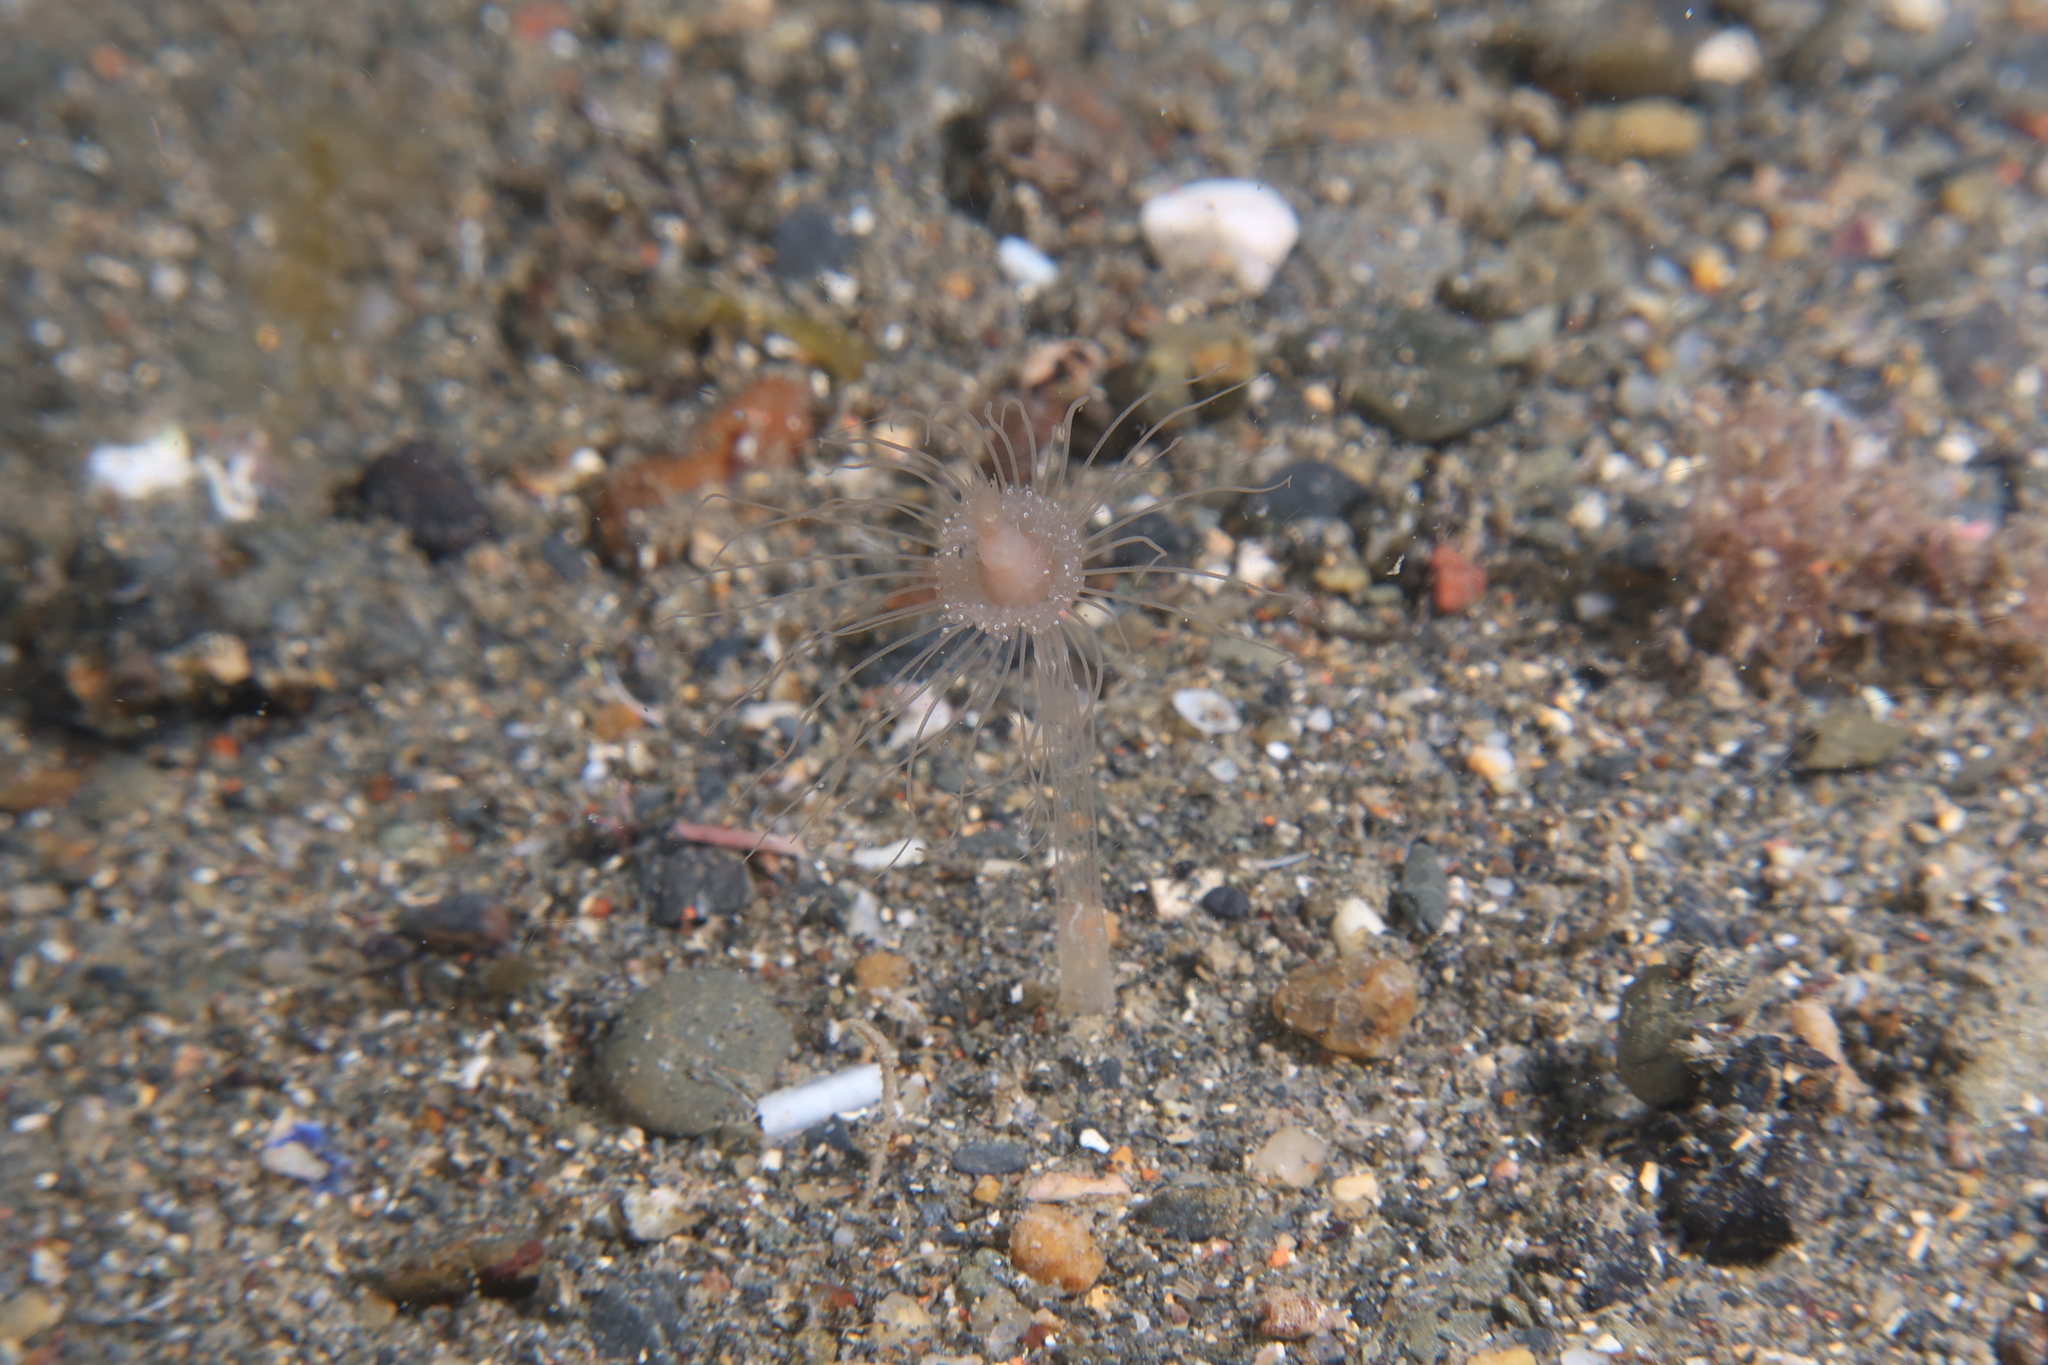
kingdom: Animalia
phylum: Cnidaria
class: Hydrozoa
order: Anthoathecata
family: Corymorphidae
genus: Corymorpha
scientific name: Corymorpha nutans
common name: Nodding hydroid
